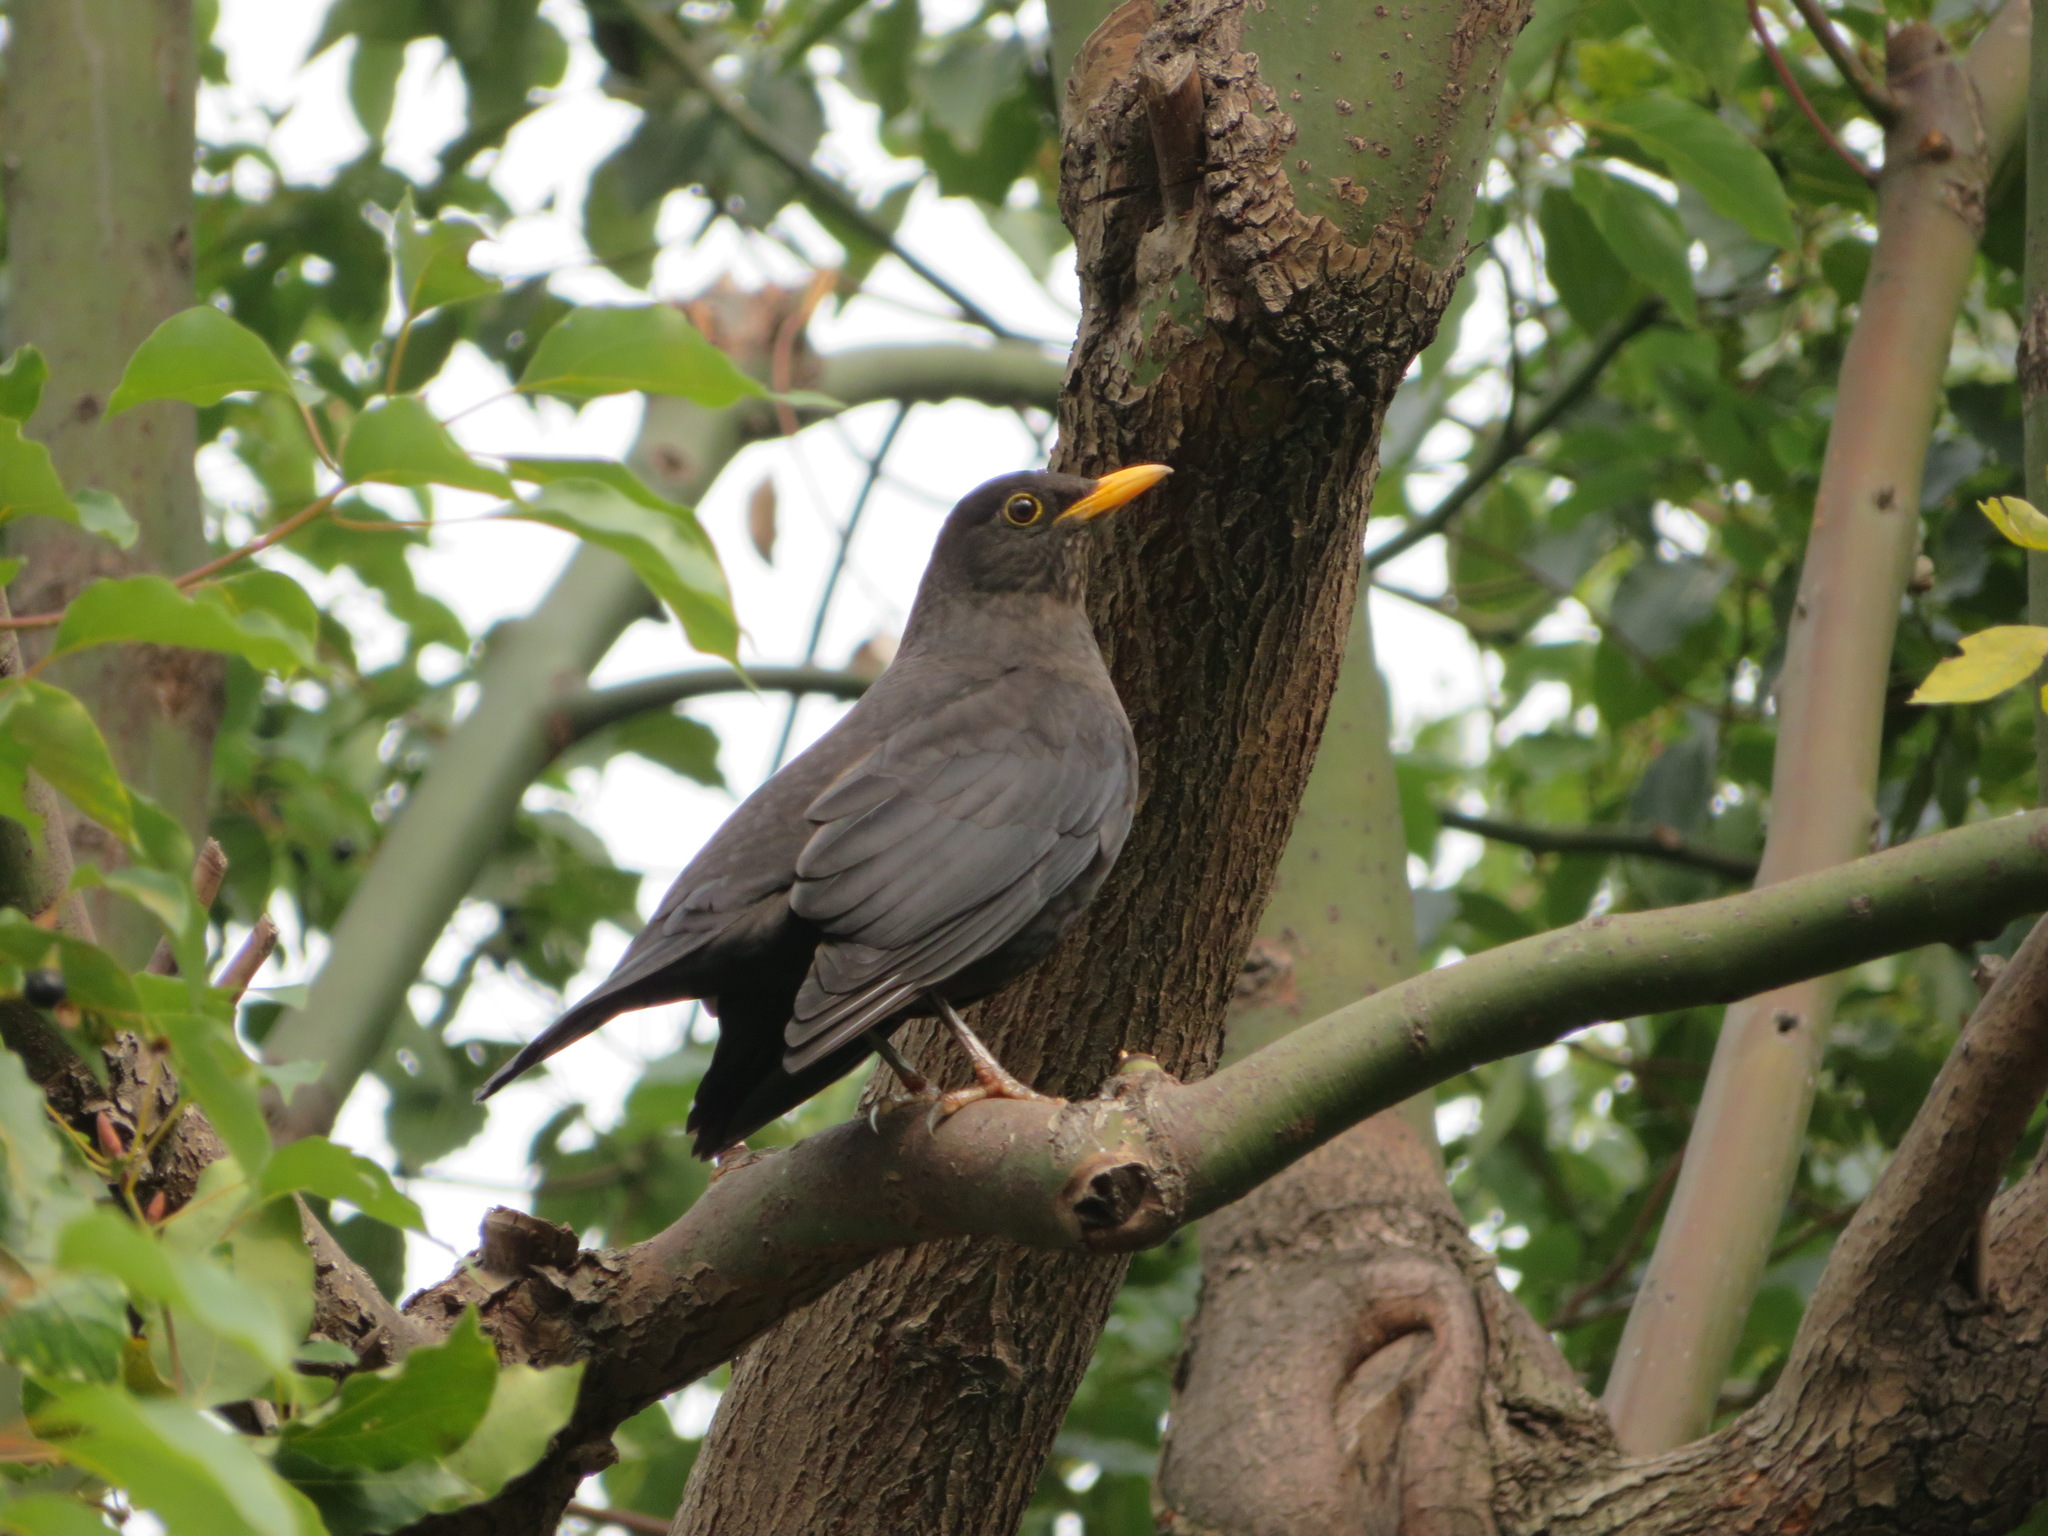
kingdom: Animalia
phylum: Chordata
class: Aves
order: Passeriformes
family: Turdidae
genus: Turdus
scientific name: Turdus mandarinus
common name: Chinese blackbird
